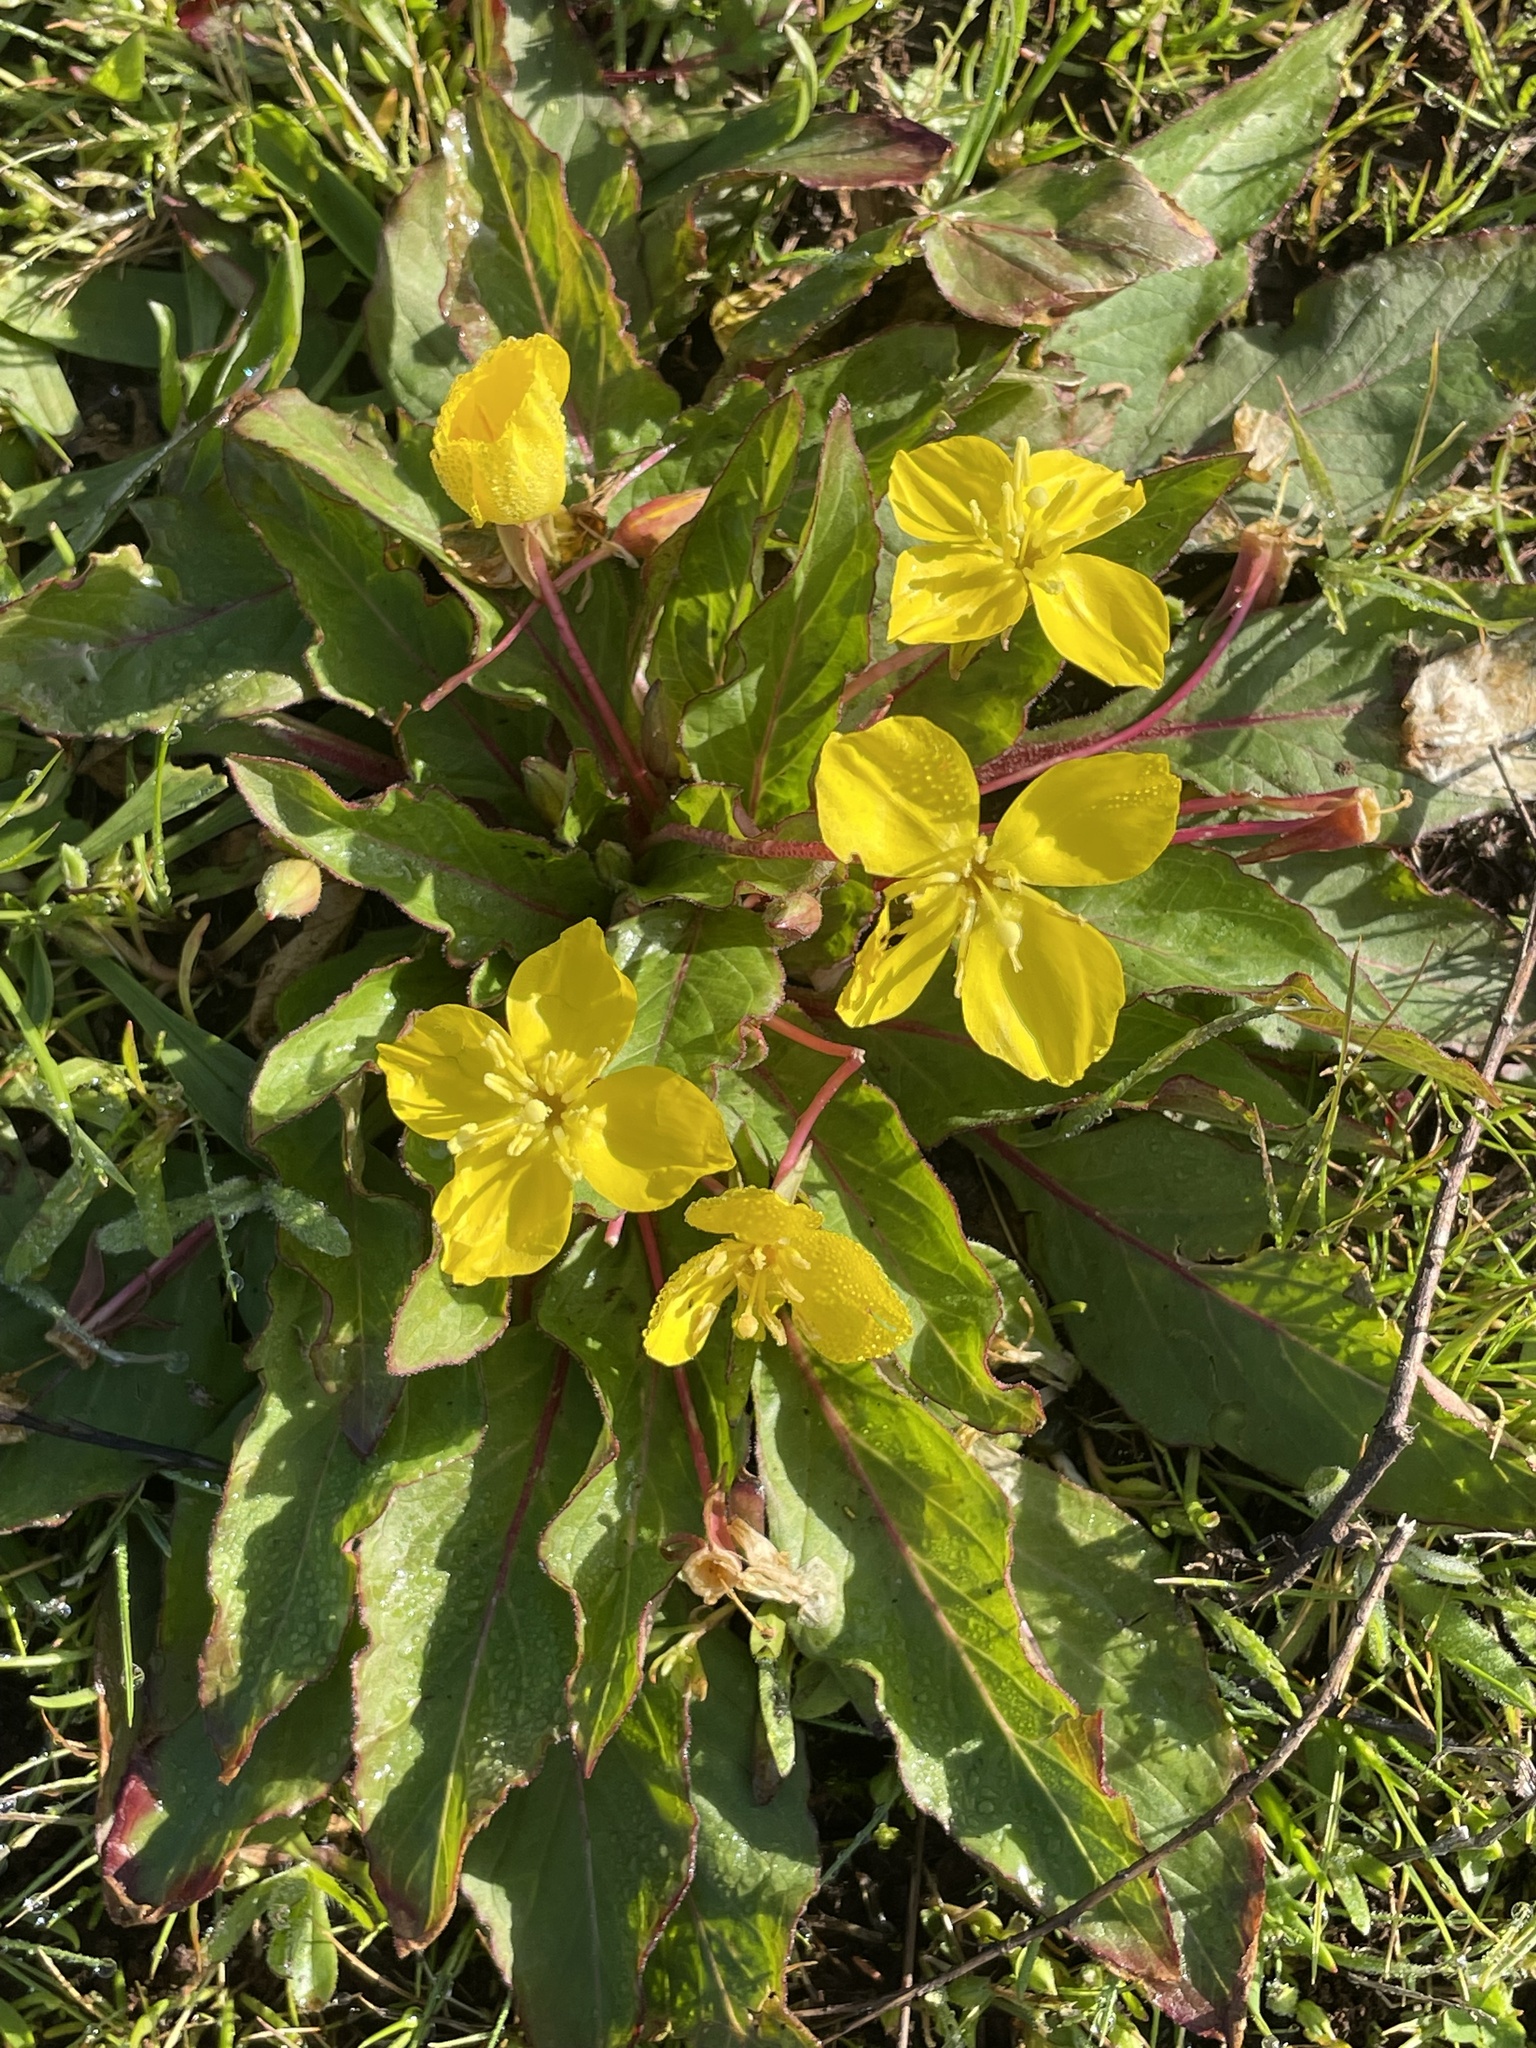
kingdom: Plantae
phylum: Tracheophyta
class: Magnoliopsida
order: Myrtales
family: Onagraceae
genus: Taraxia
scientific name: Taraxia ovata
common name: Goldeneggs
